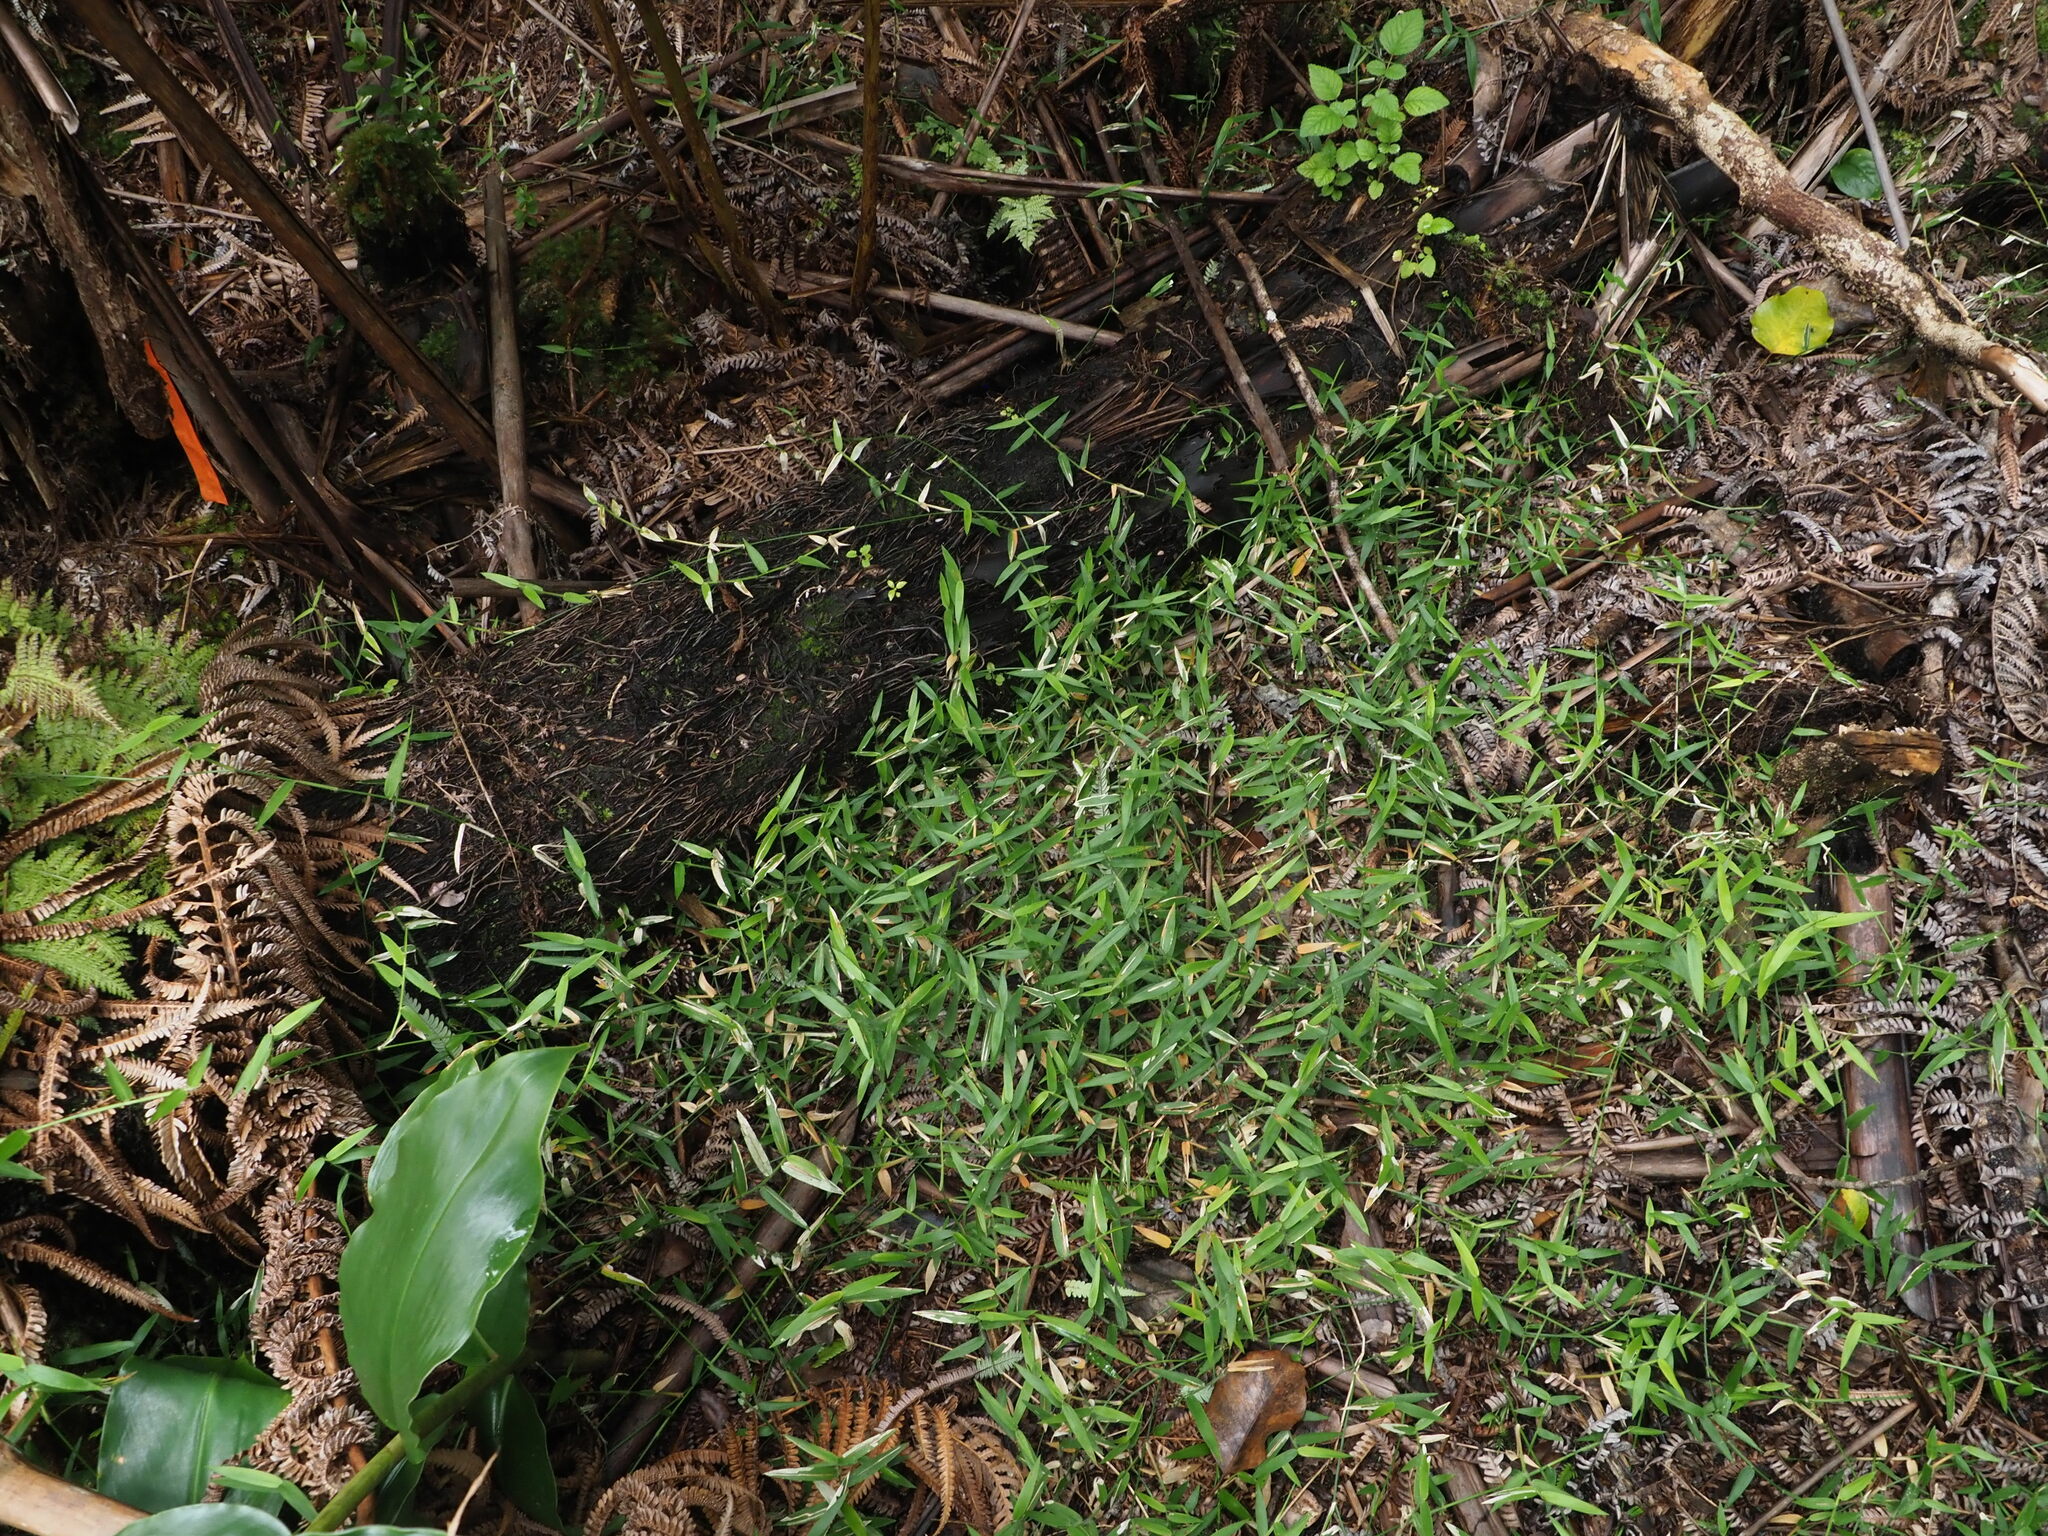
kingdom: Plantae
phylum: Tracheophyta
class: Liliopsida
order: Poales
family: Poaceae
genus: Panicum
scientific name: Panicum pygmaeum
